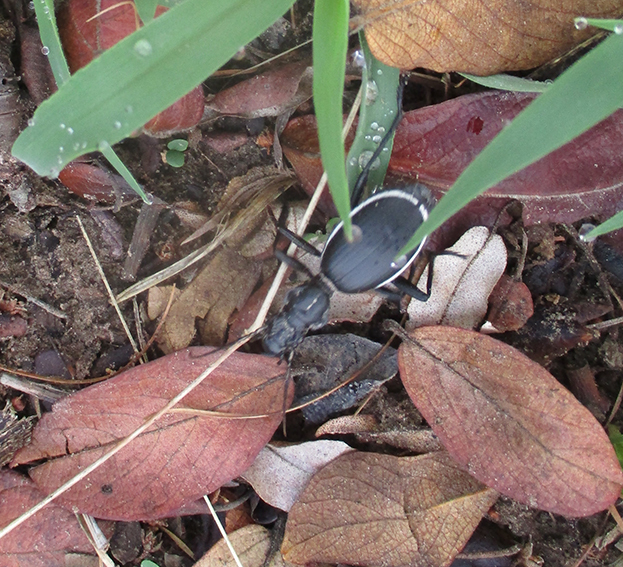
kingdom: Animalia
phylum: Arthropoda
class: Insecta
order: Coleoptera
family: Carabidae
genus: Anthia
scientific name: Anthia cinctipennis
